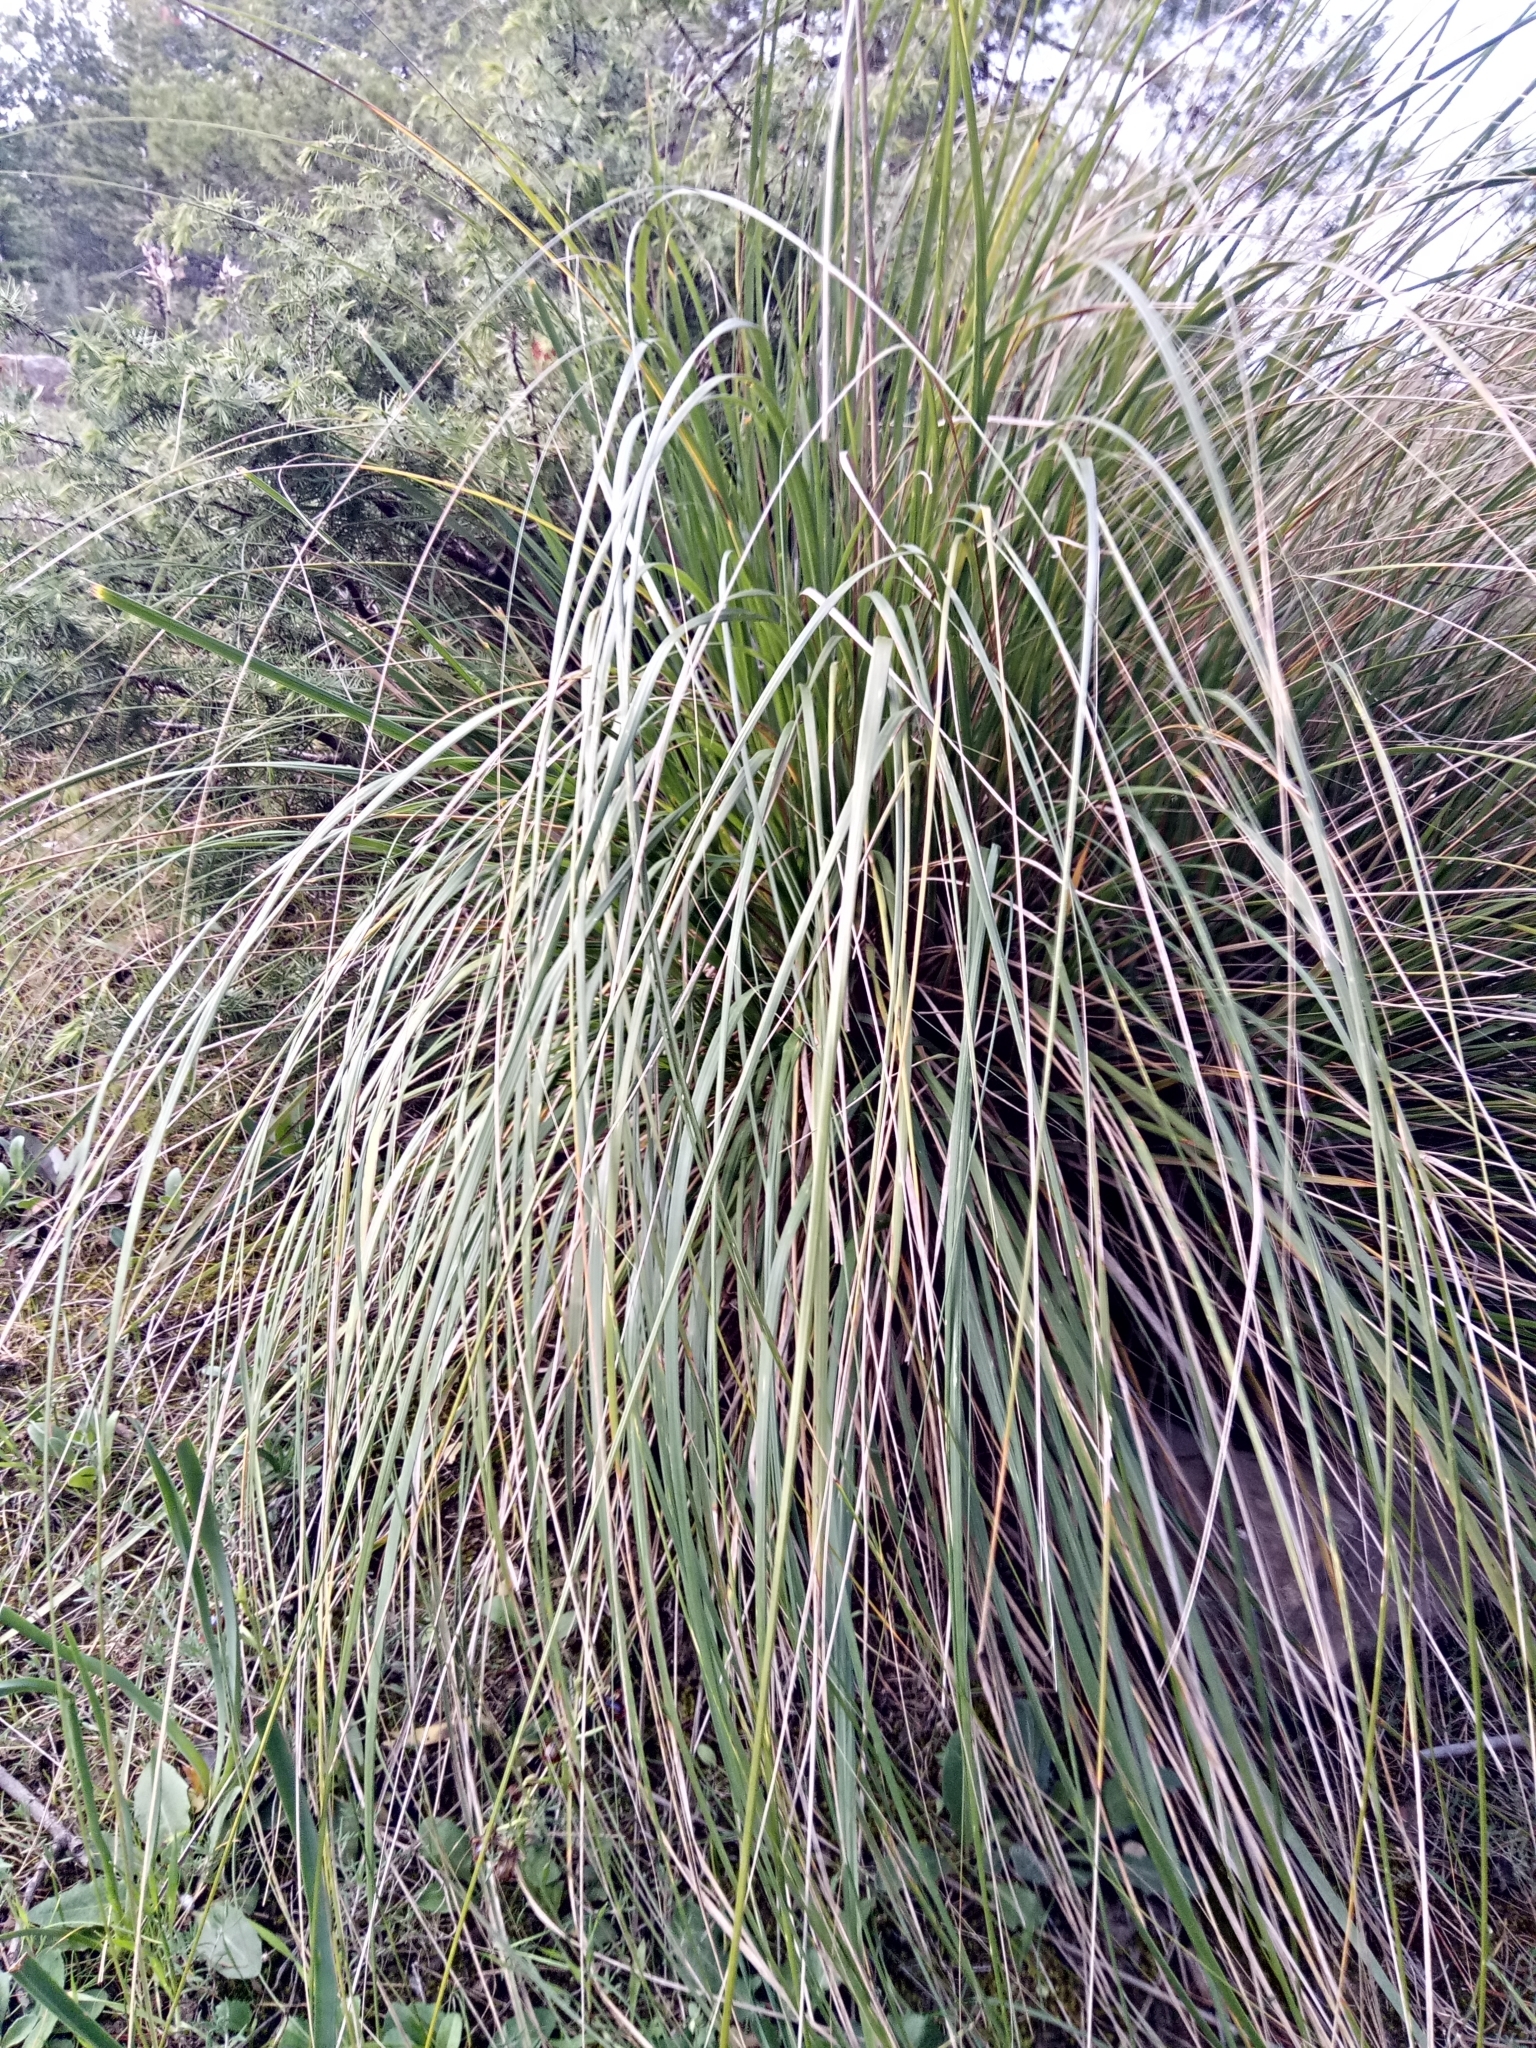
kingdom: Plantae
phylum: Tracheophyta
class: Liliopsida
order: Poales
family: Poaceae
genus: Ampelodesmos
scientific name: Ampelodesmos mauritanicus
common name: Mauritanian grass
